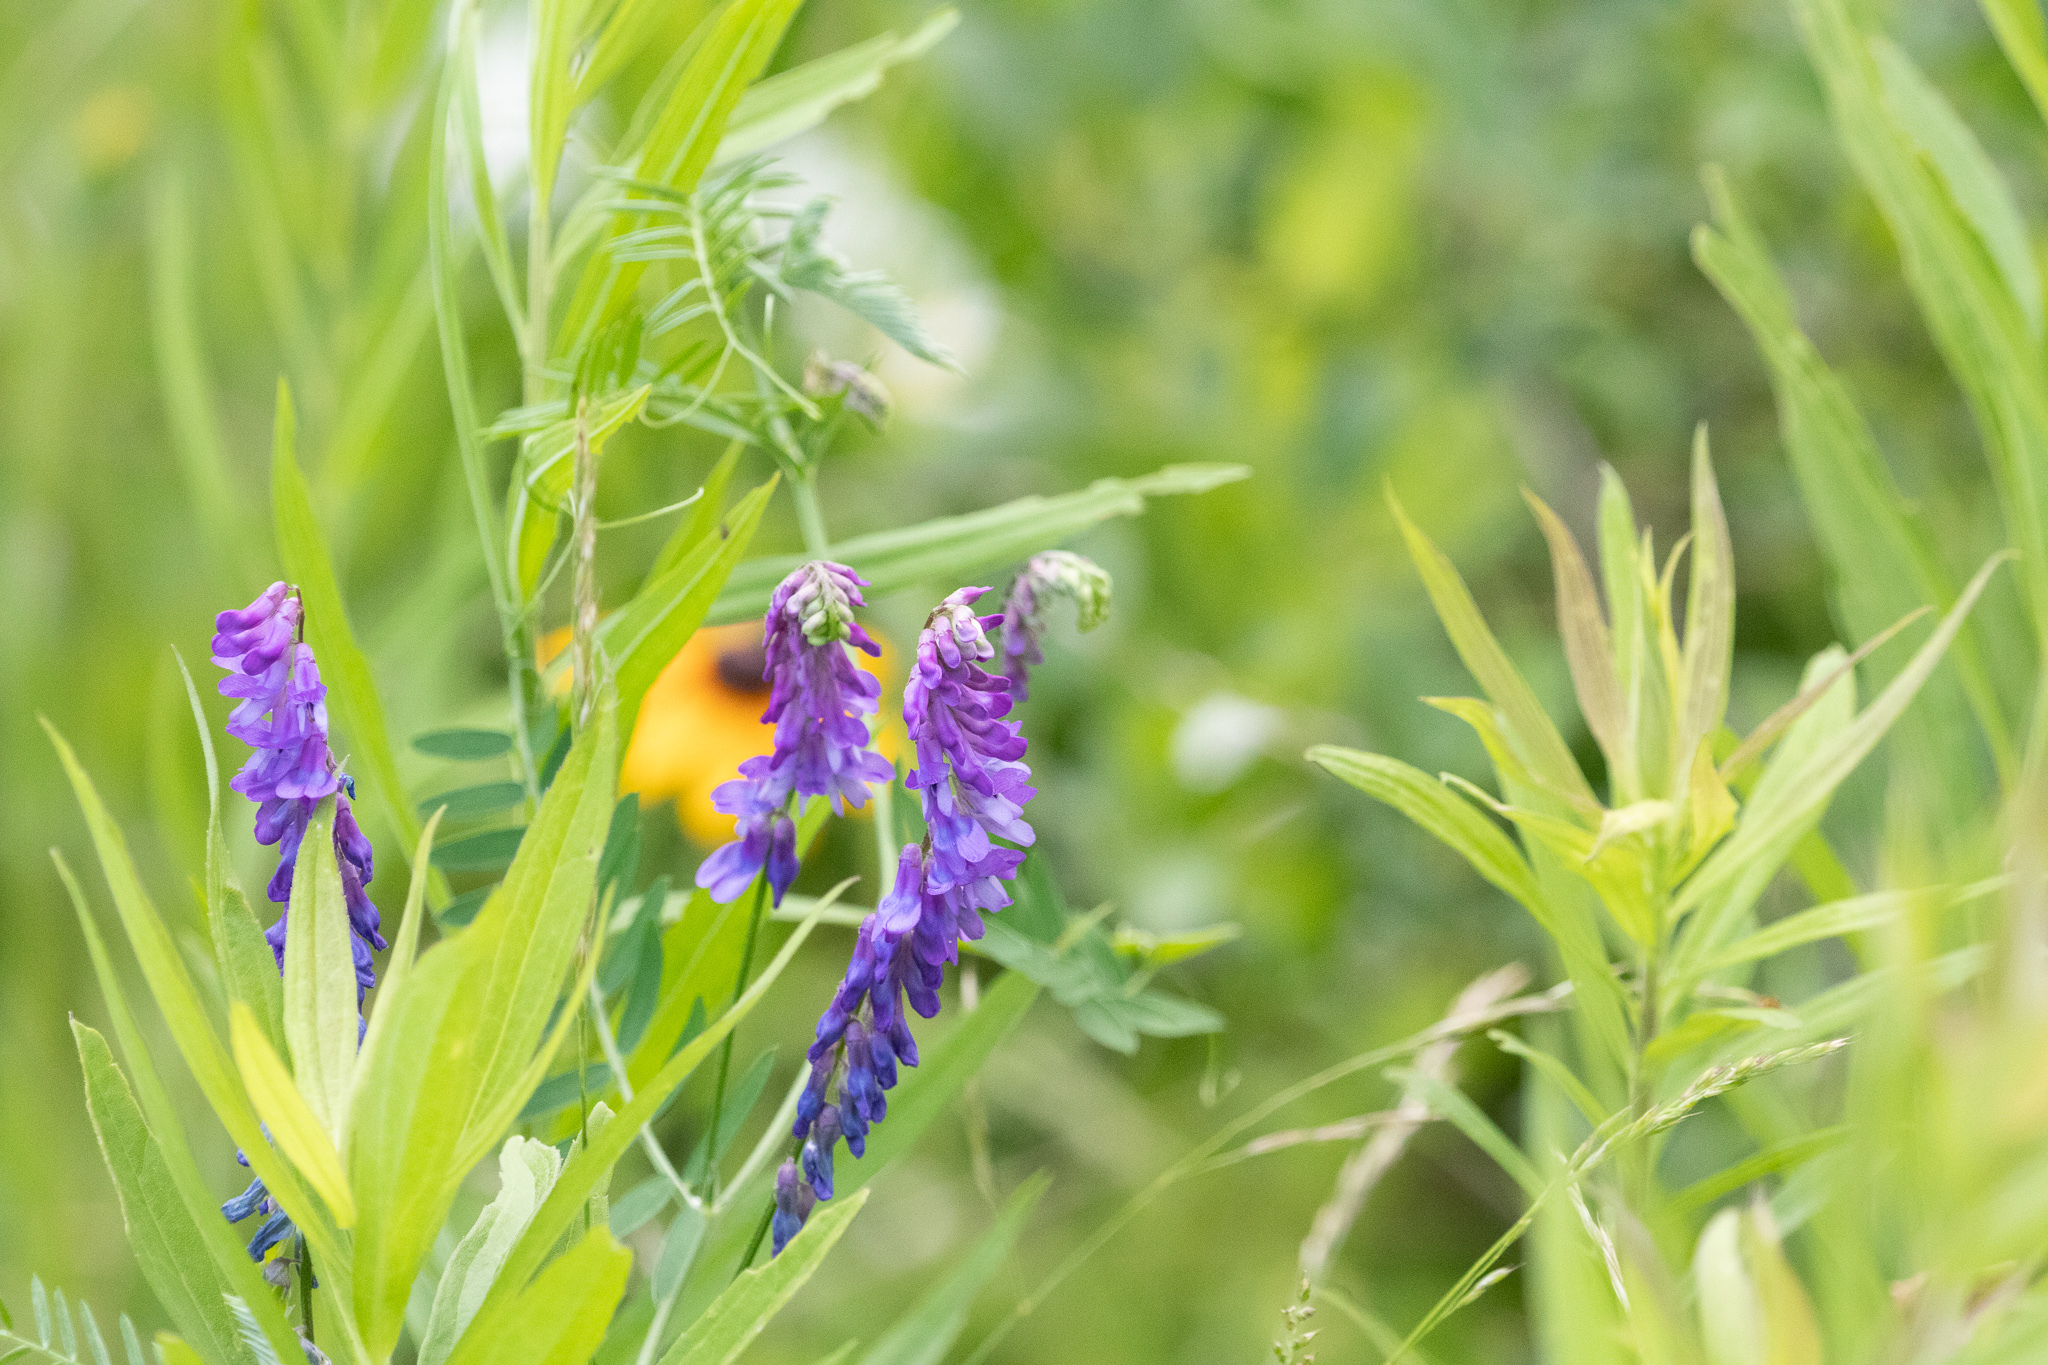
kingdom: Plantae
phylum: Tracheophyta
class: Magnoliopsida
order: Fabales
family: Fabaceae
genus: Vicia
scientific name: Vicia cracca
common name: Bird vetch
